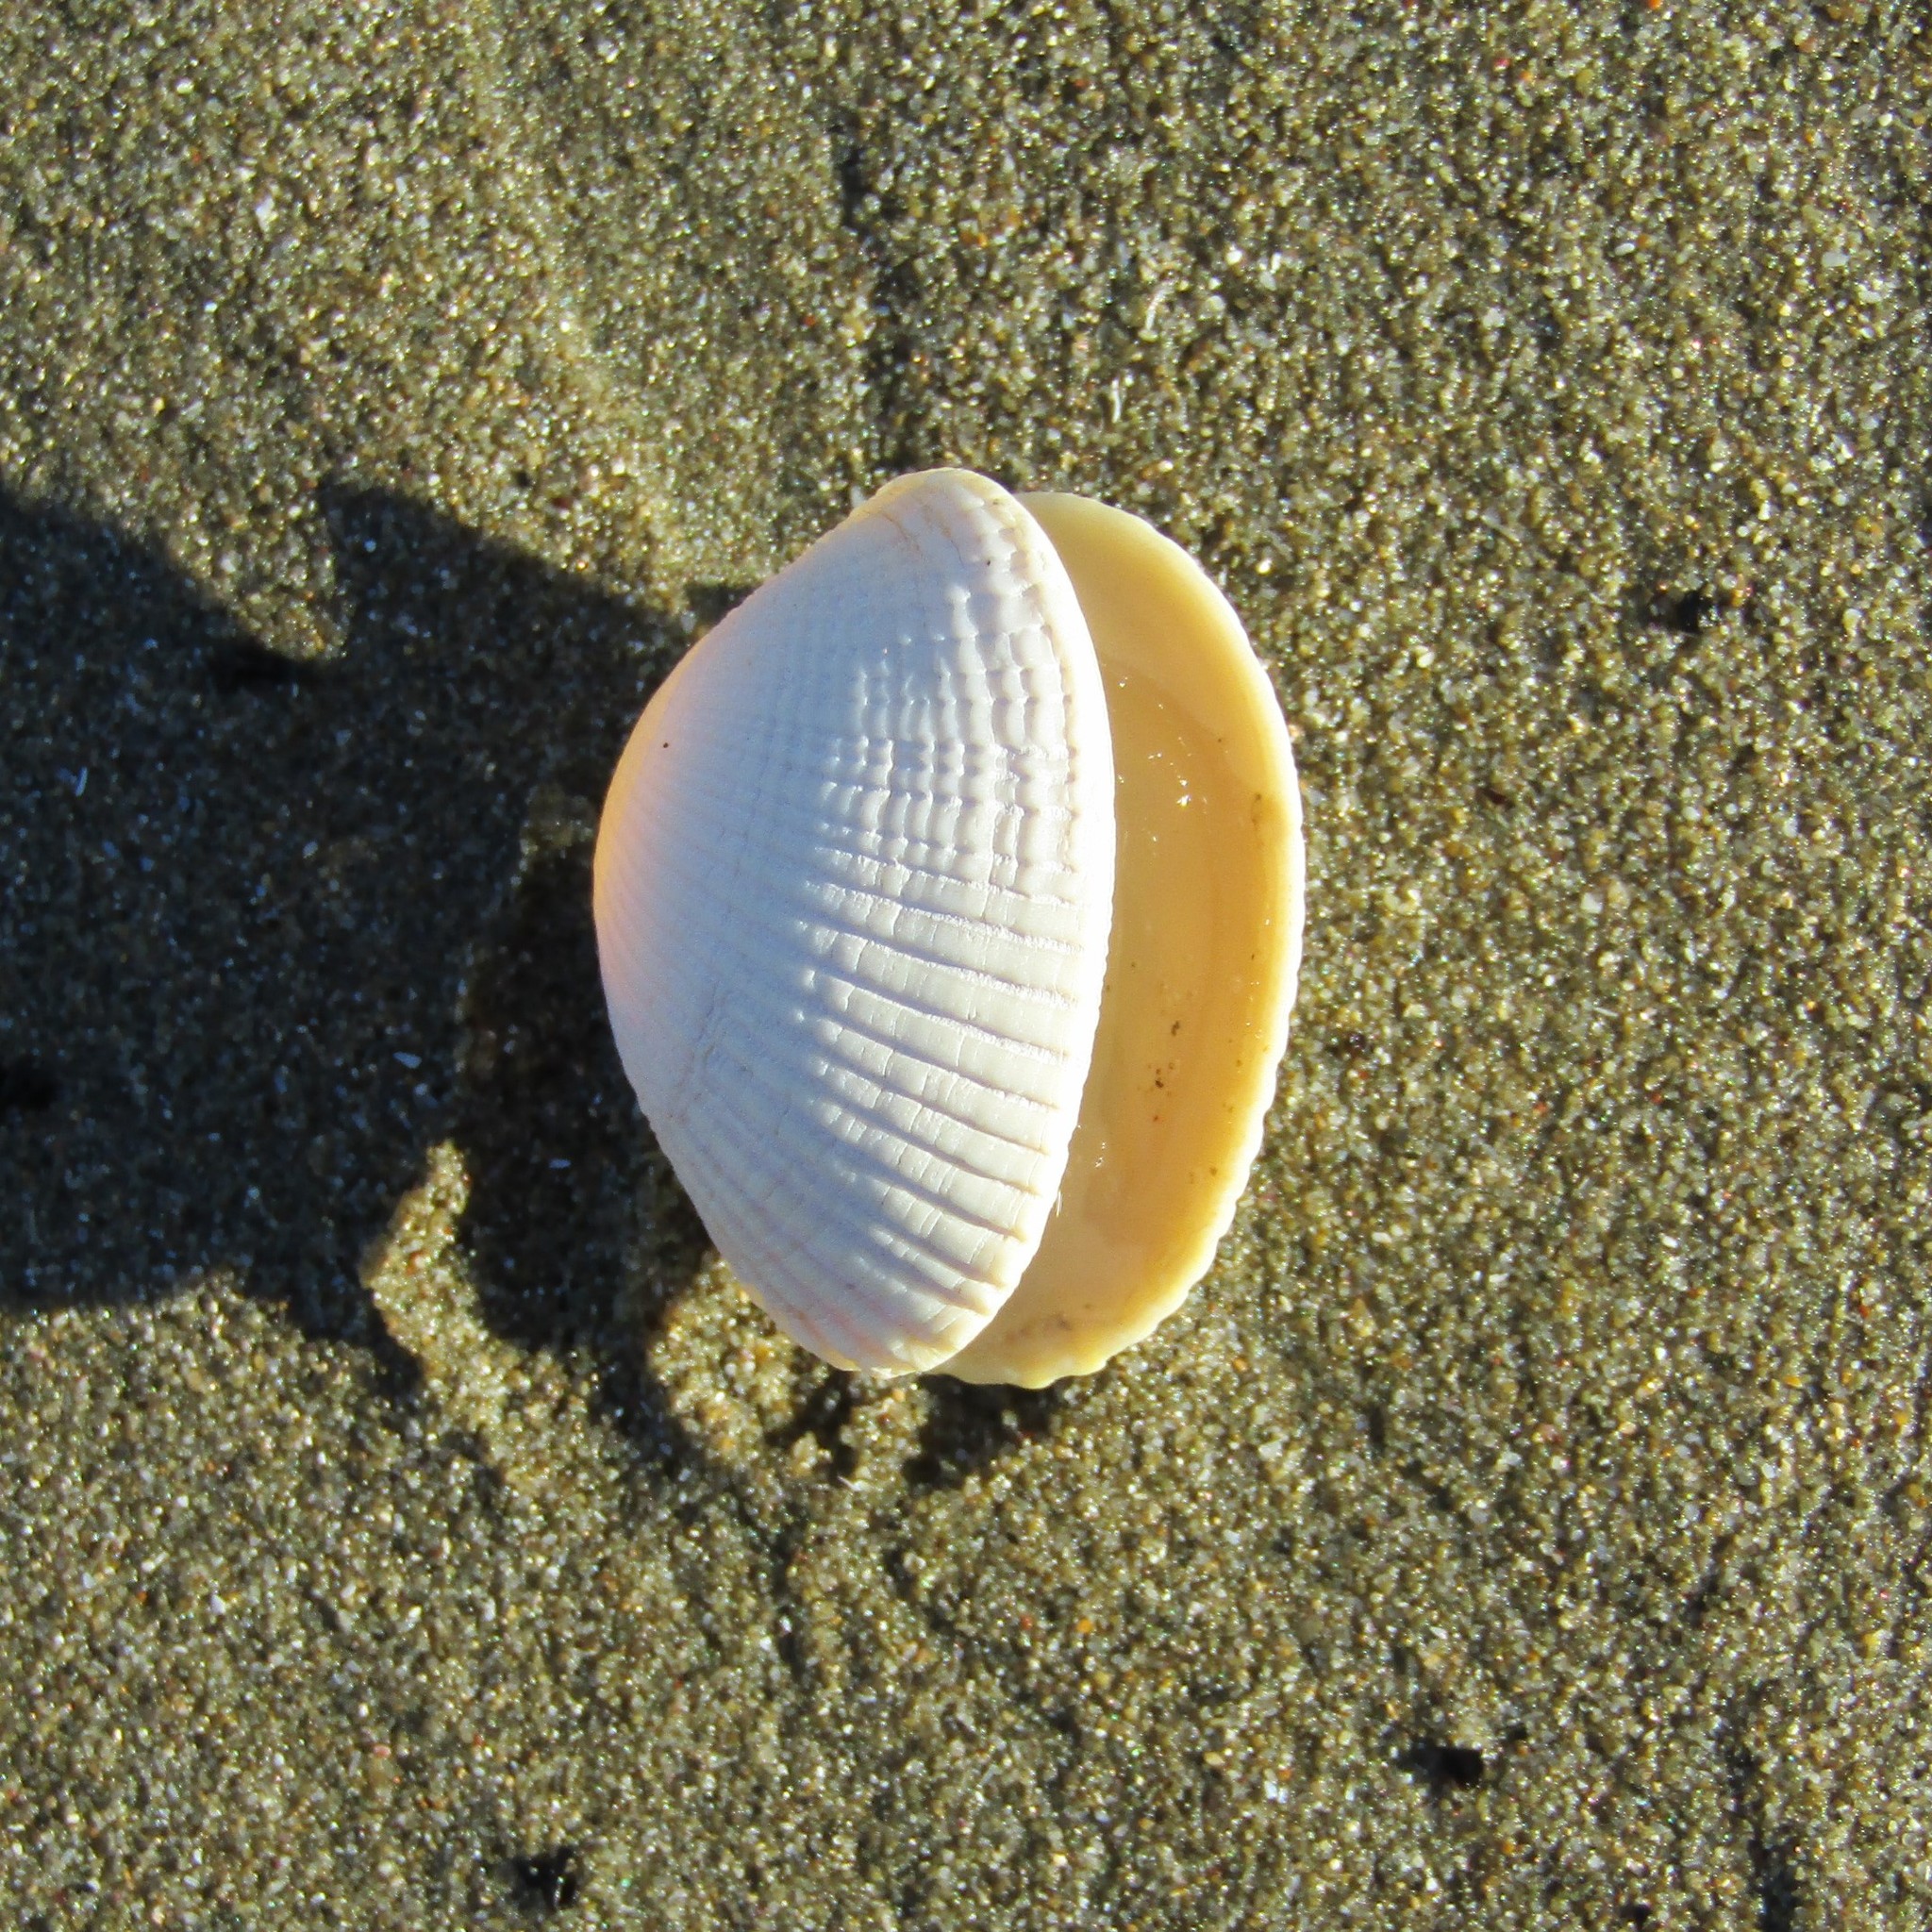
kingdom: Animalia
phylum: Mollusca
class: Bivalvia
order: Venerida
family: Veneridae
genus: Leukoma
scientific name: Leukoma crassicosta
